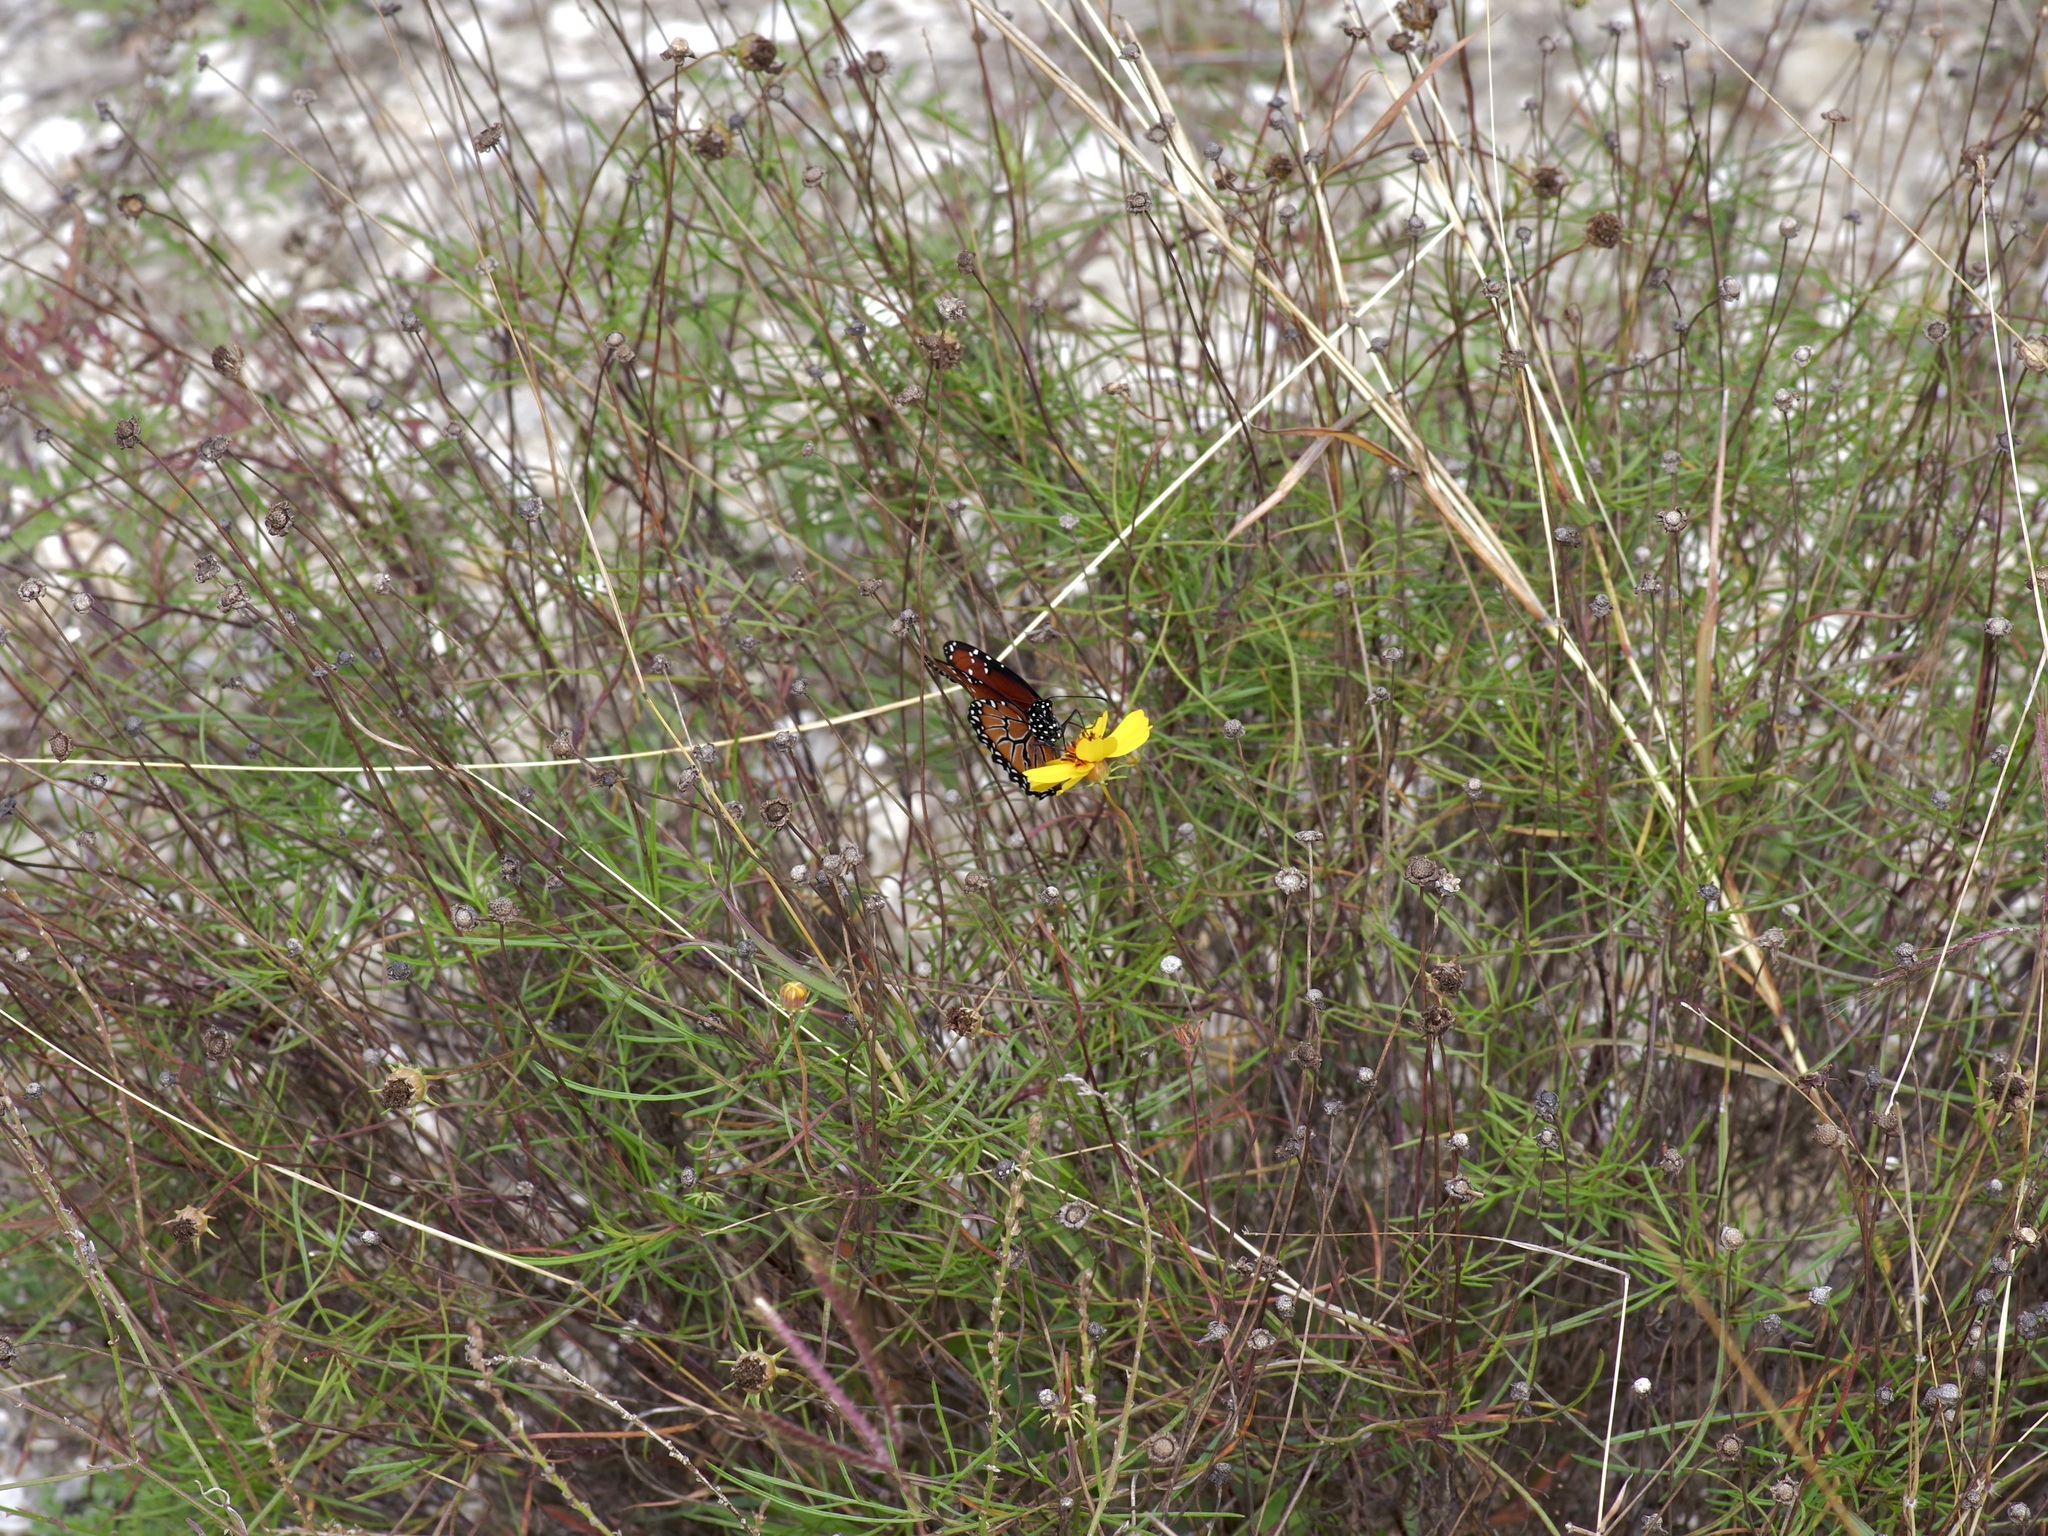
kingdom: Animalia
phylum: Arthropoda
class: Insecta
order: Lepidoptera
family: Nymphalidae
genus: Danaus
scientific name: Danaus gilippus
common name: Queen
